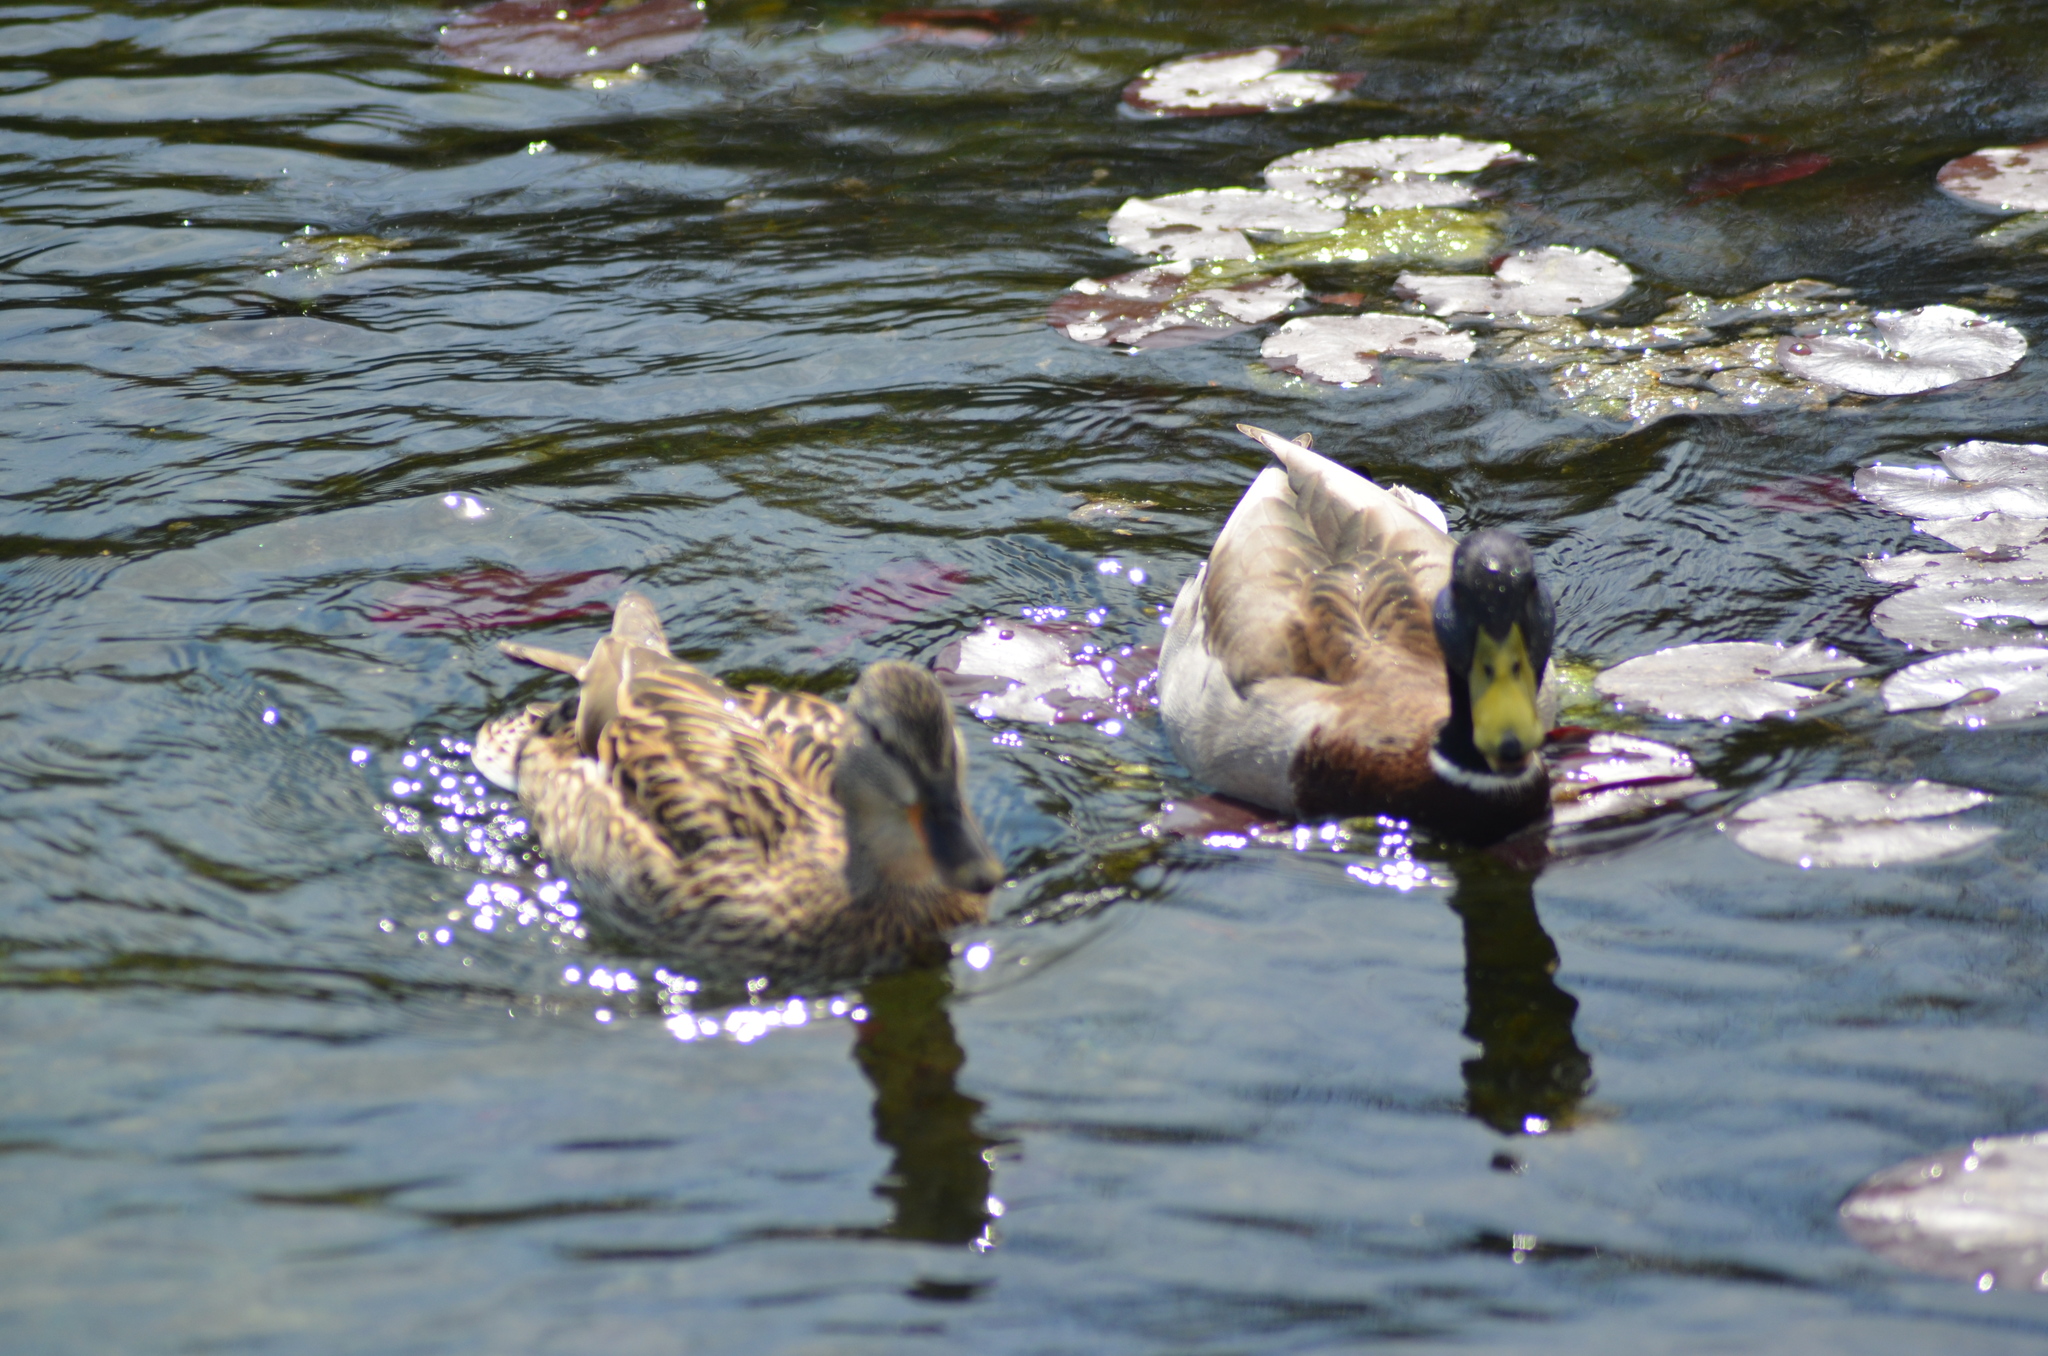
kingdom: Animalia
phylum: Chordata
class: Aves
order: Anseriformes
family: Anatidae
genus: Anas
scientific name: Anas platyrhynchos
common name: Mallard
